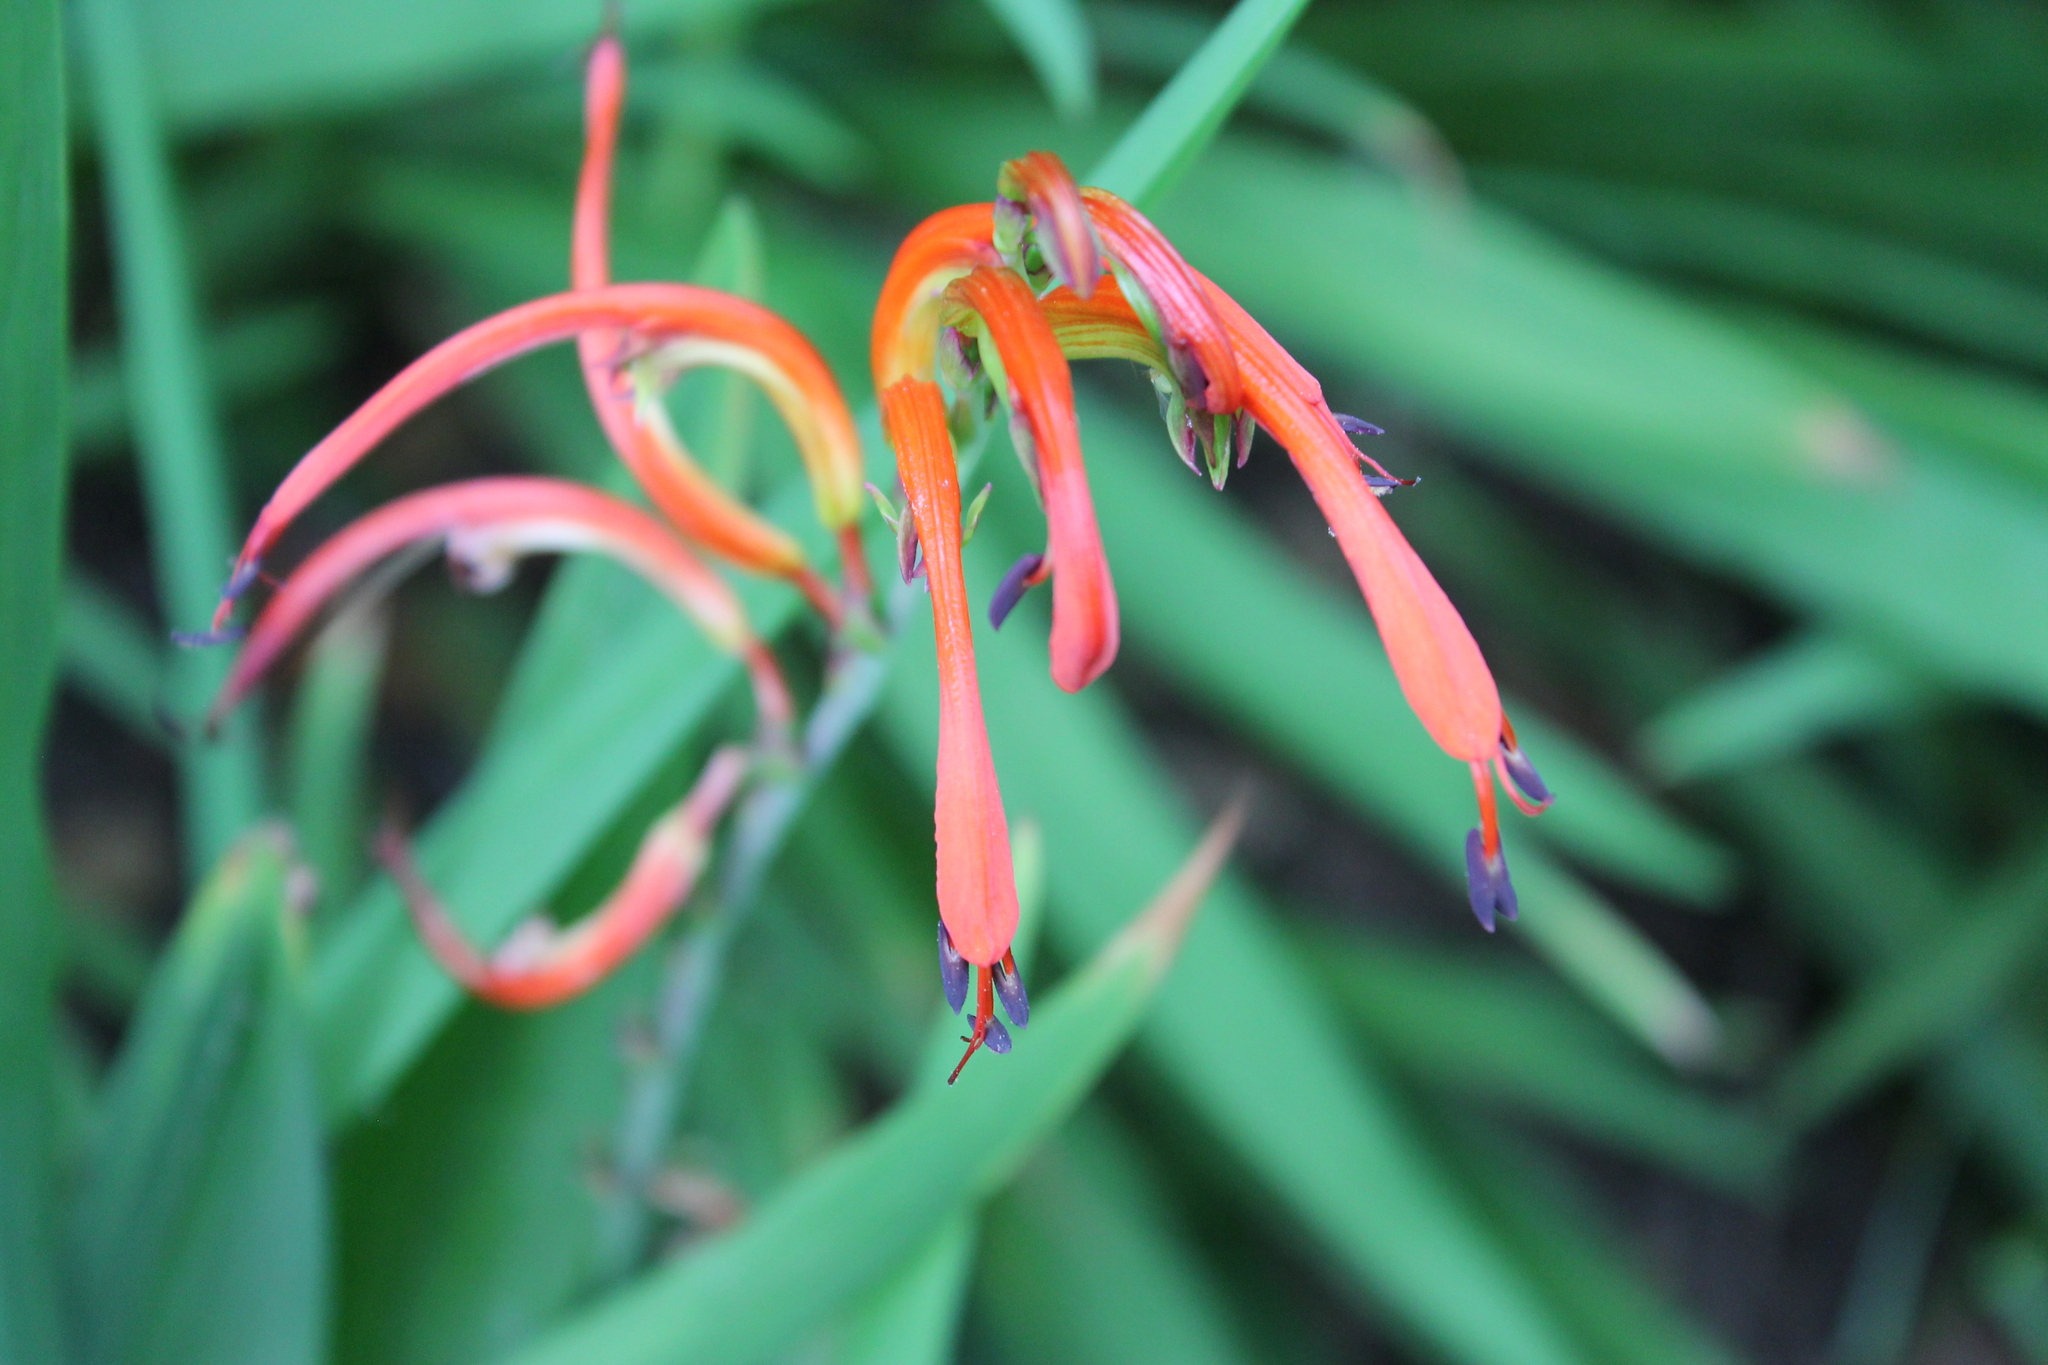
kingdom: Plantae
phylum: Tracheophyta
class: Liliopsida
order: Asparagales
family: Iridaceae
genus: Chasmanthe
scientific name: Chasmanthe bicolor
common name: Bicolor cobra lily
